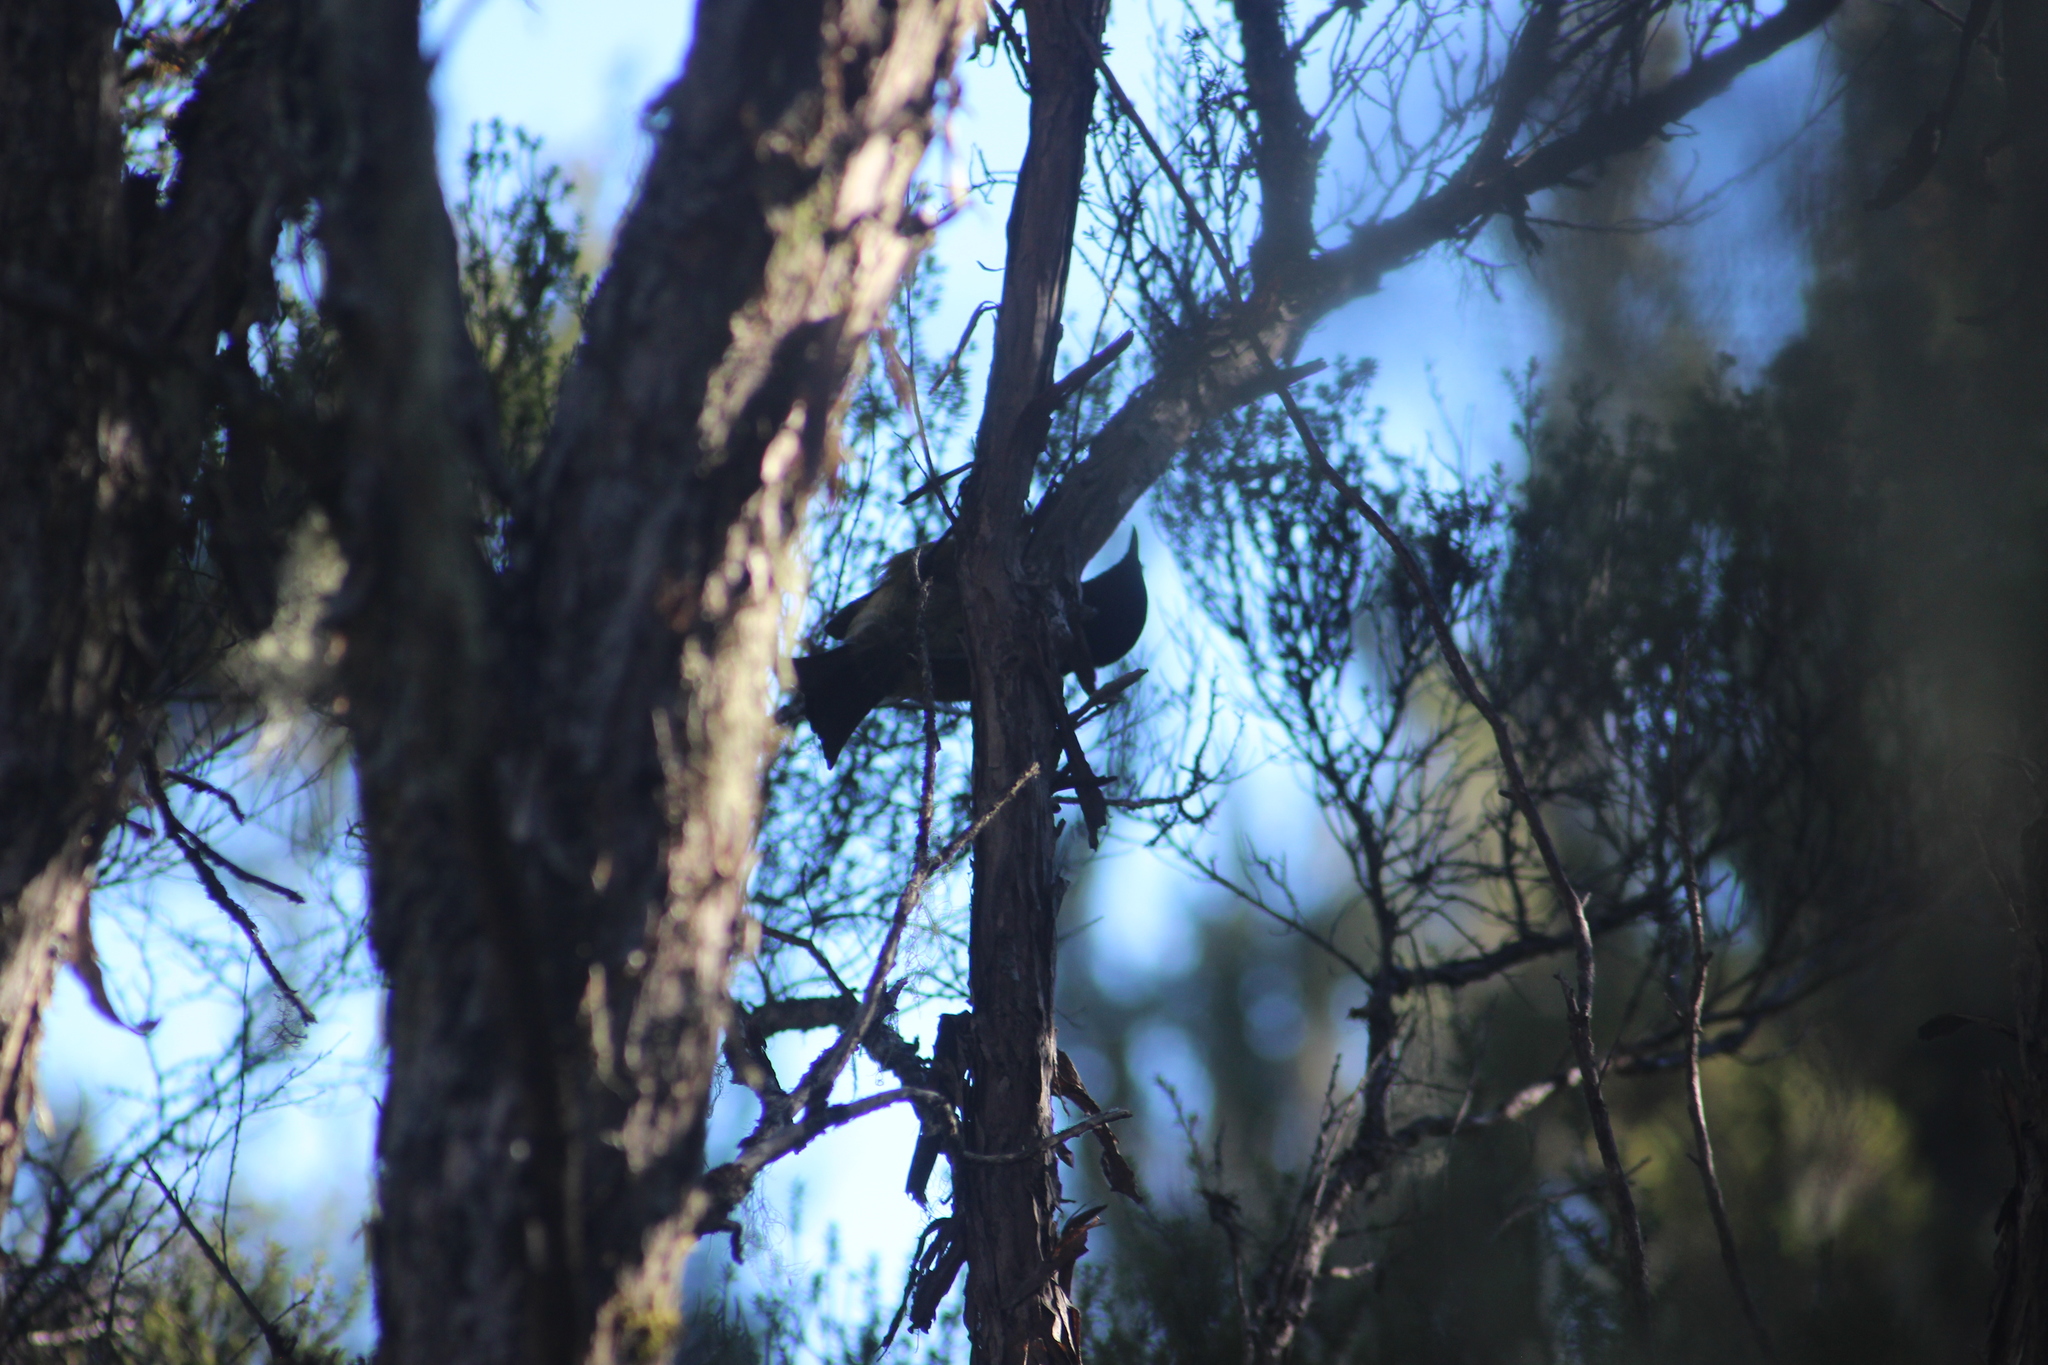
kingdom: Animalia
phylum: Chordata
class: Aves
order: Passeriformes
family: Meliphagidae
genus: Anthornis
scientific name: Anthornis melanura
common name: New zealand bellbird
